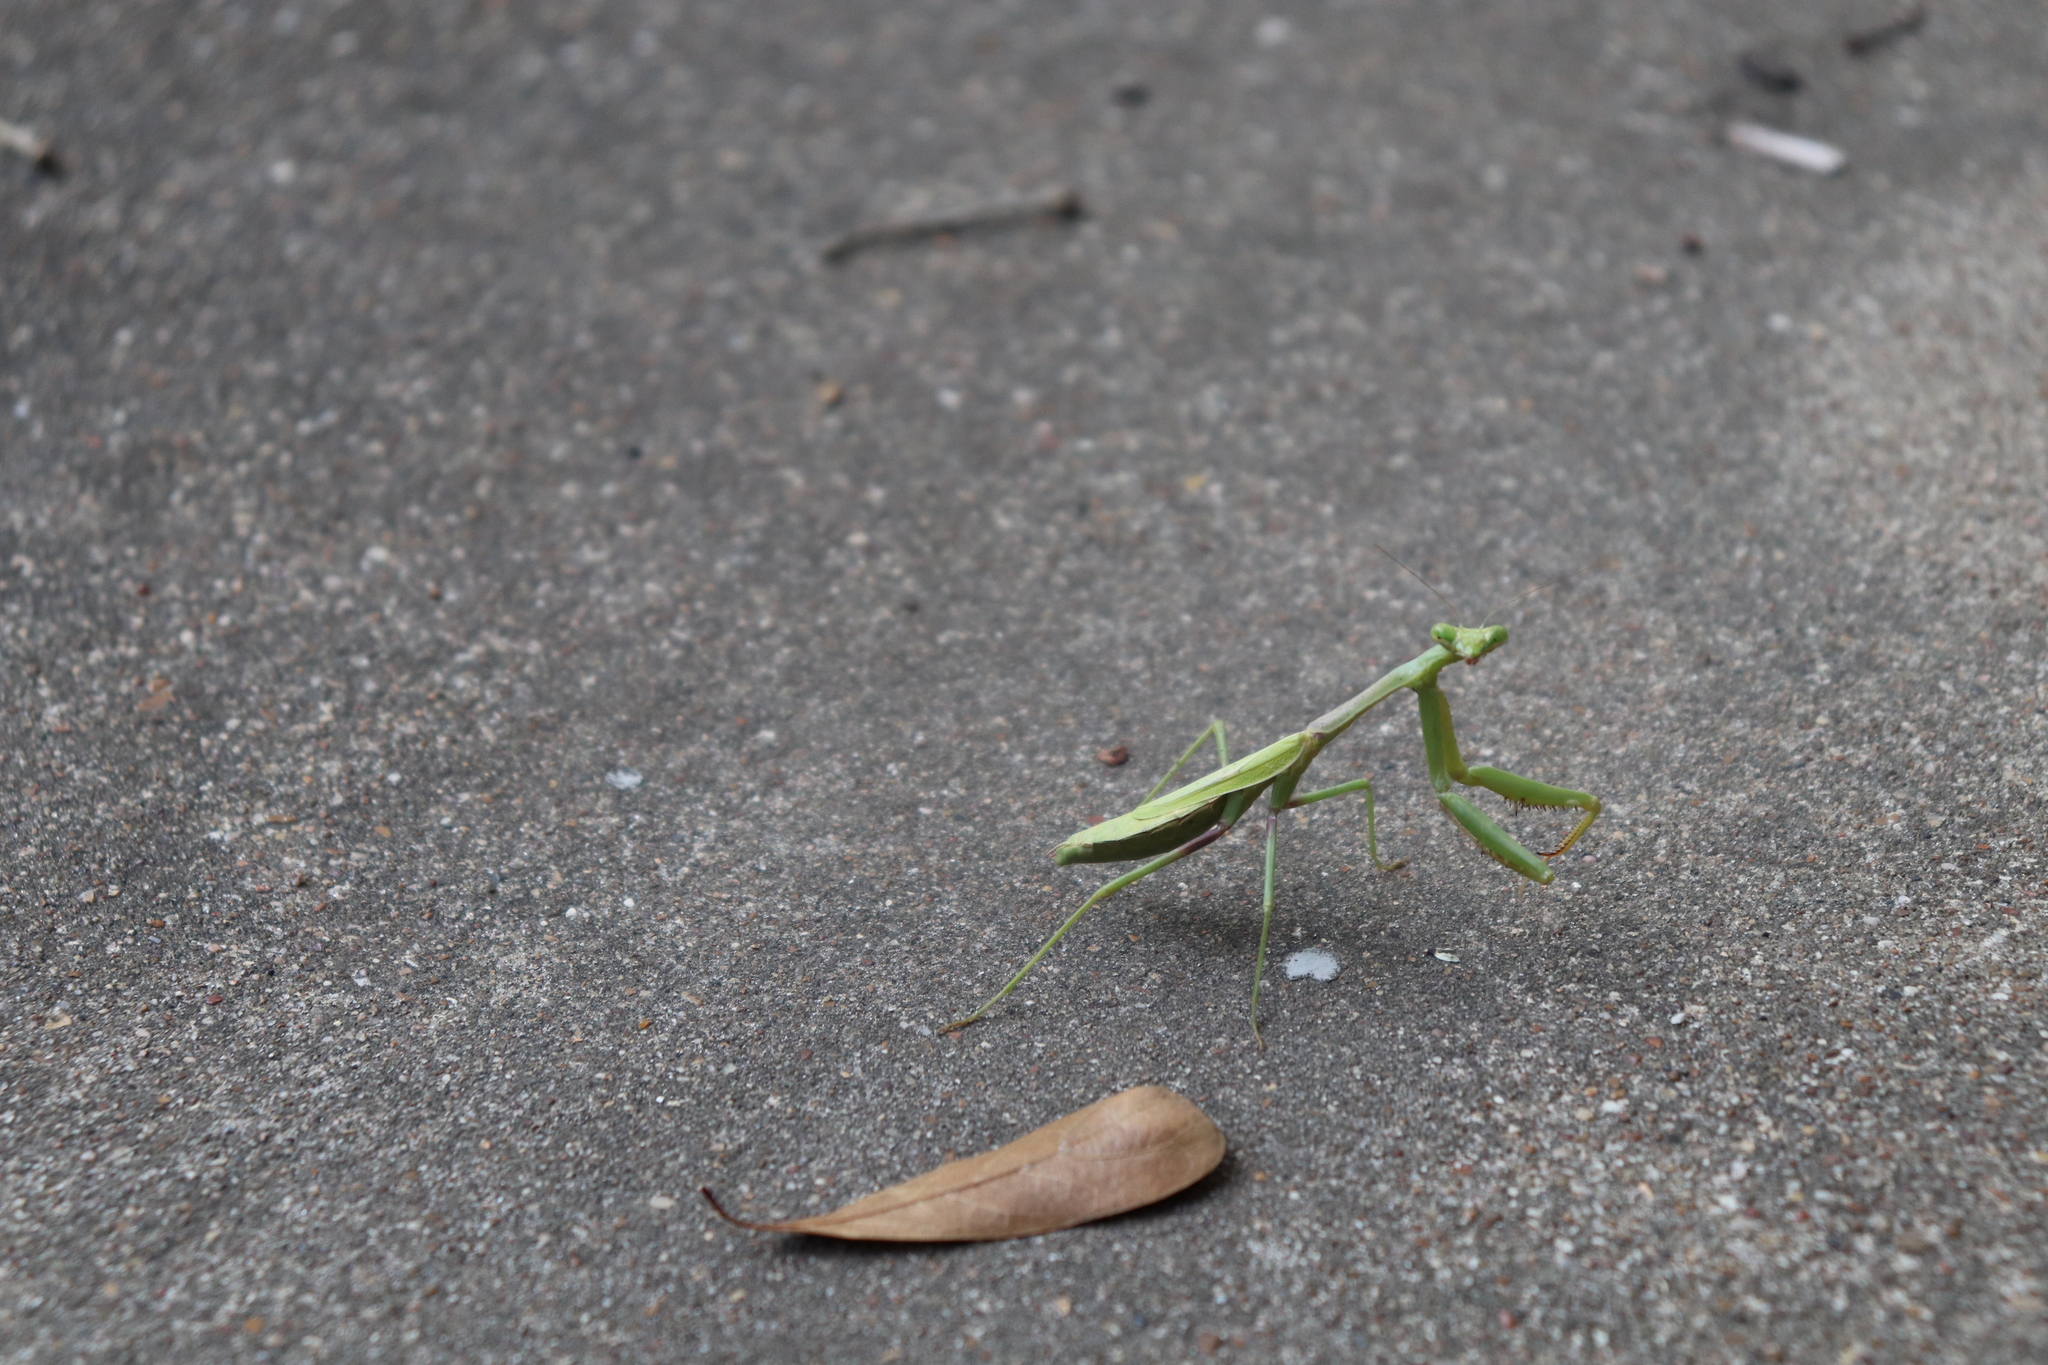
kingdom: Animalia
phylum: Arthropoda
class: Insecta
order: Mantodea
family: Mantidae
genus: Stagmomantis
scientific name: Stagmomantis carolina
